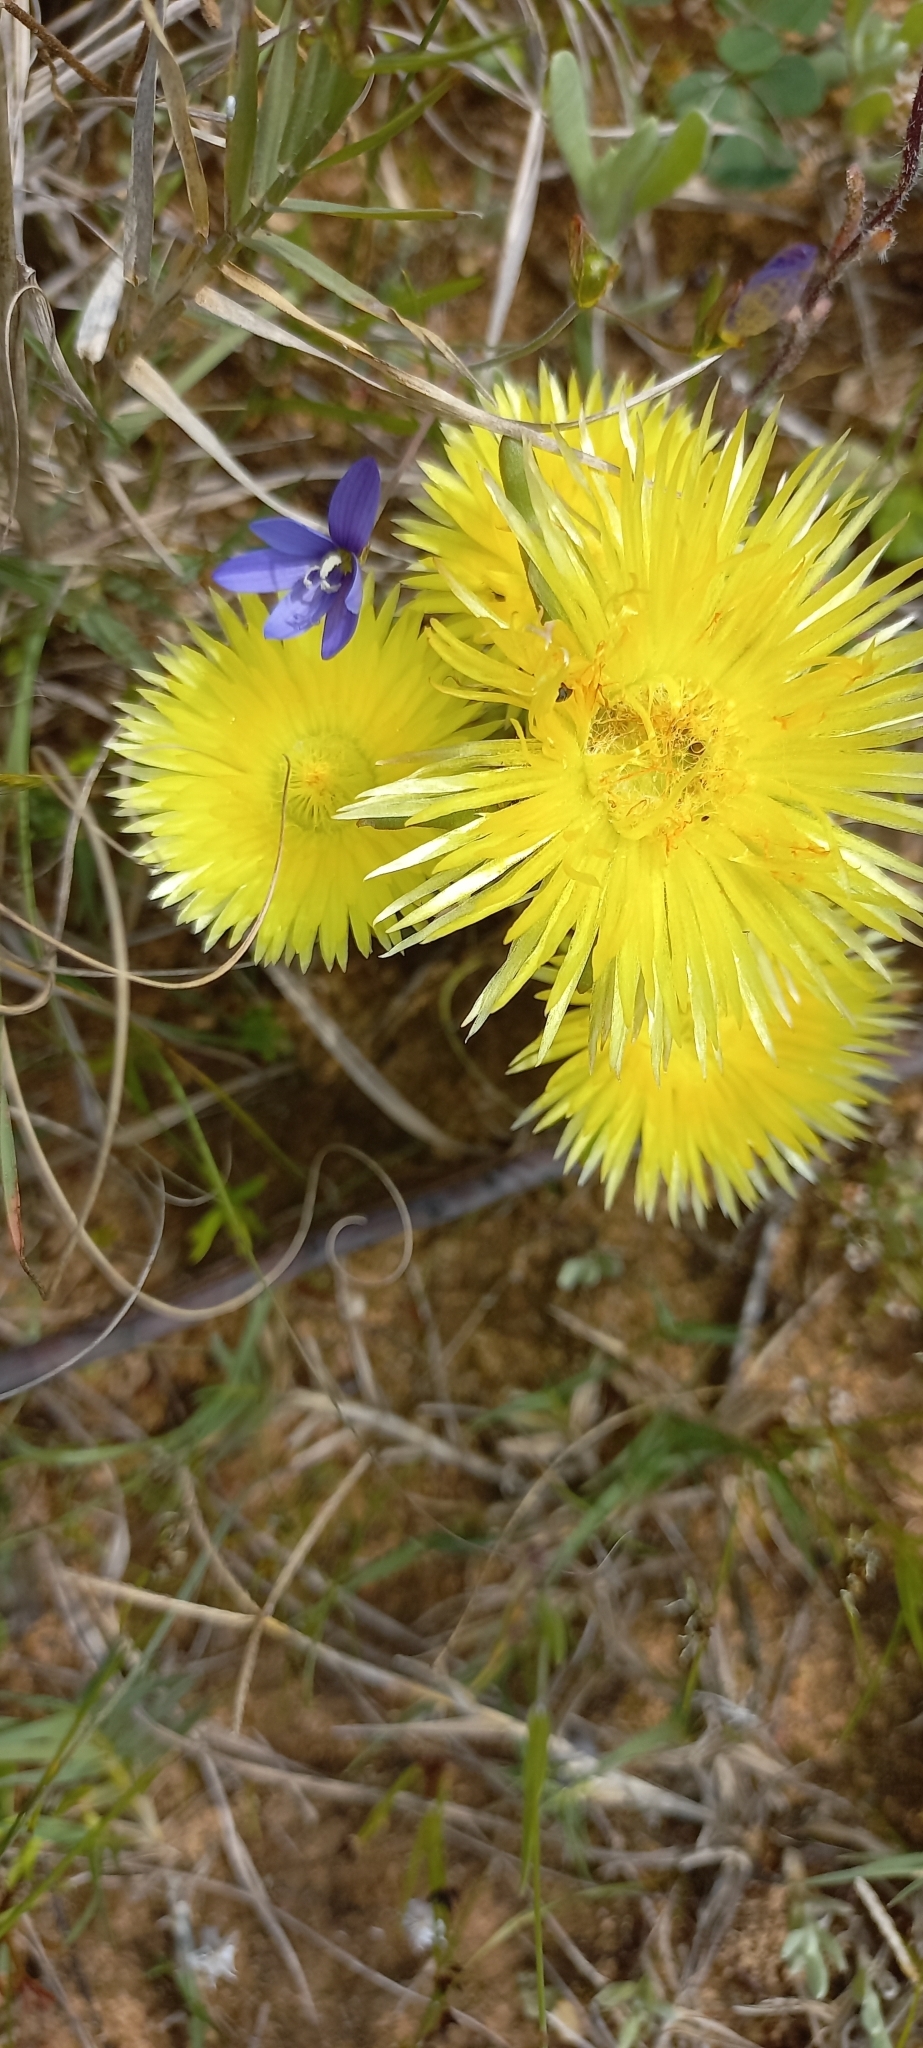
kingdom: Plantae
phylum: Tracheophyta
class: Magnoliopsida
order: Caryophyllales
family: Aizoaceae
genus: Carpanthea
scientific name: Carpanthea pomeridiana
